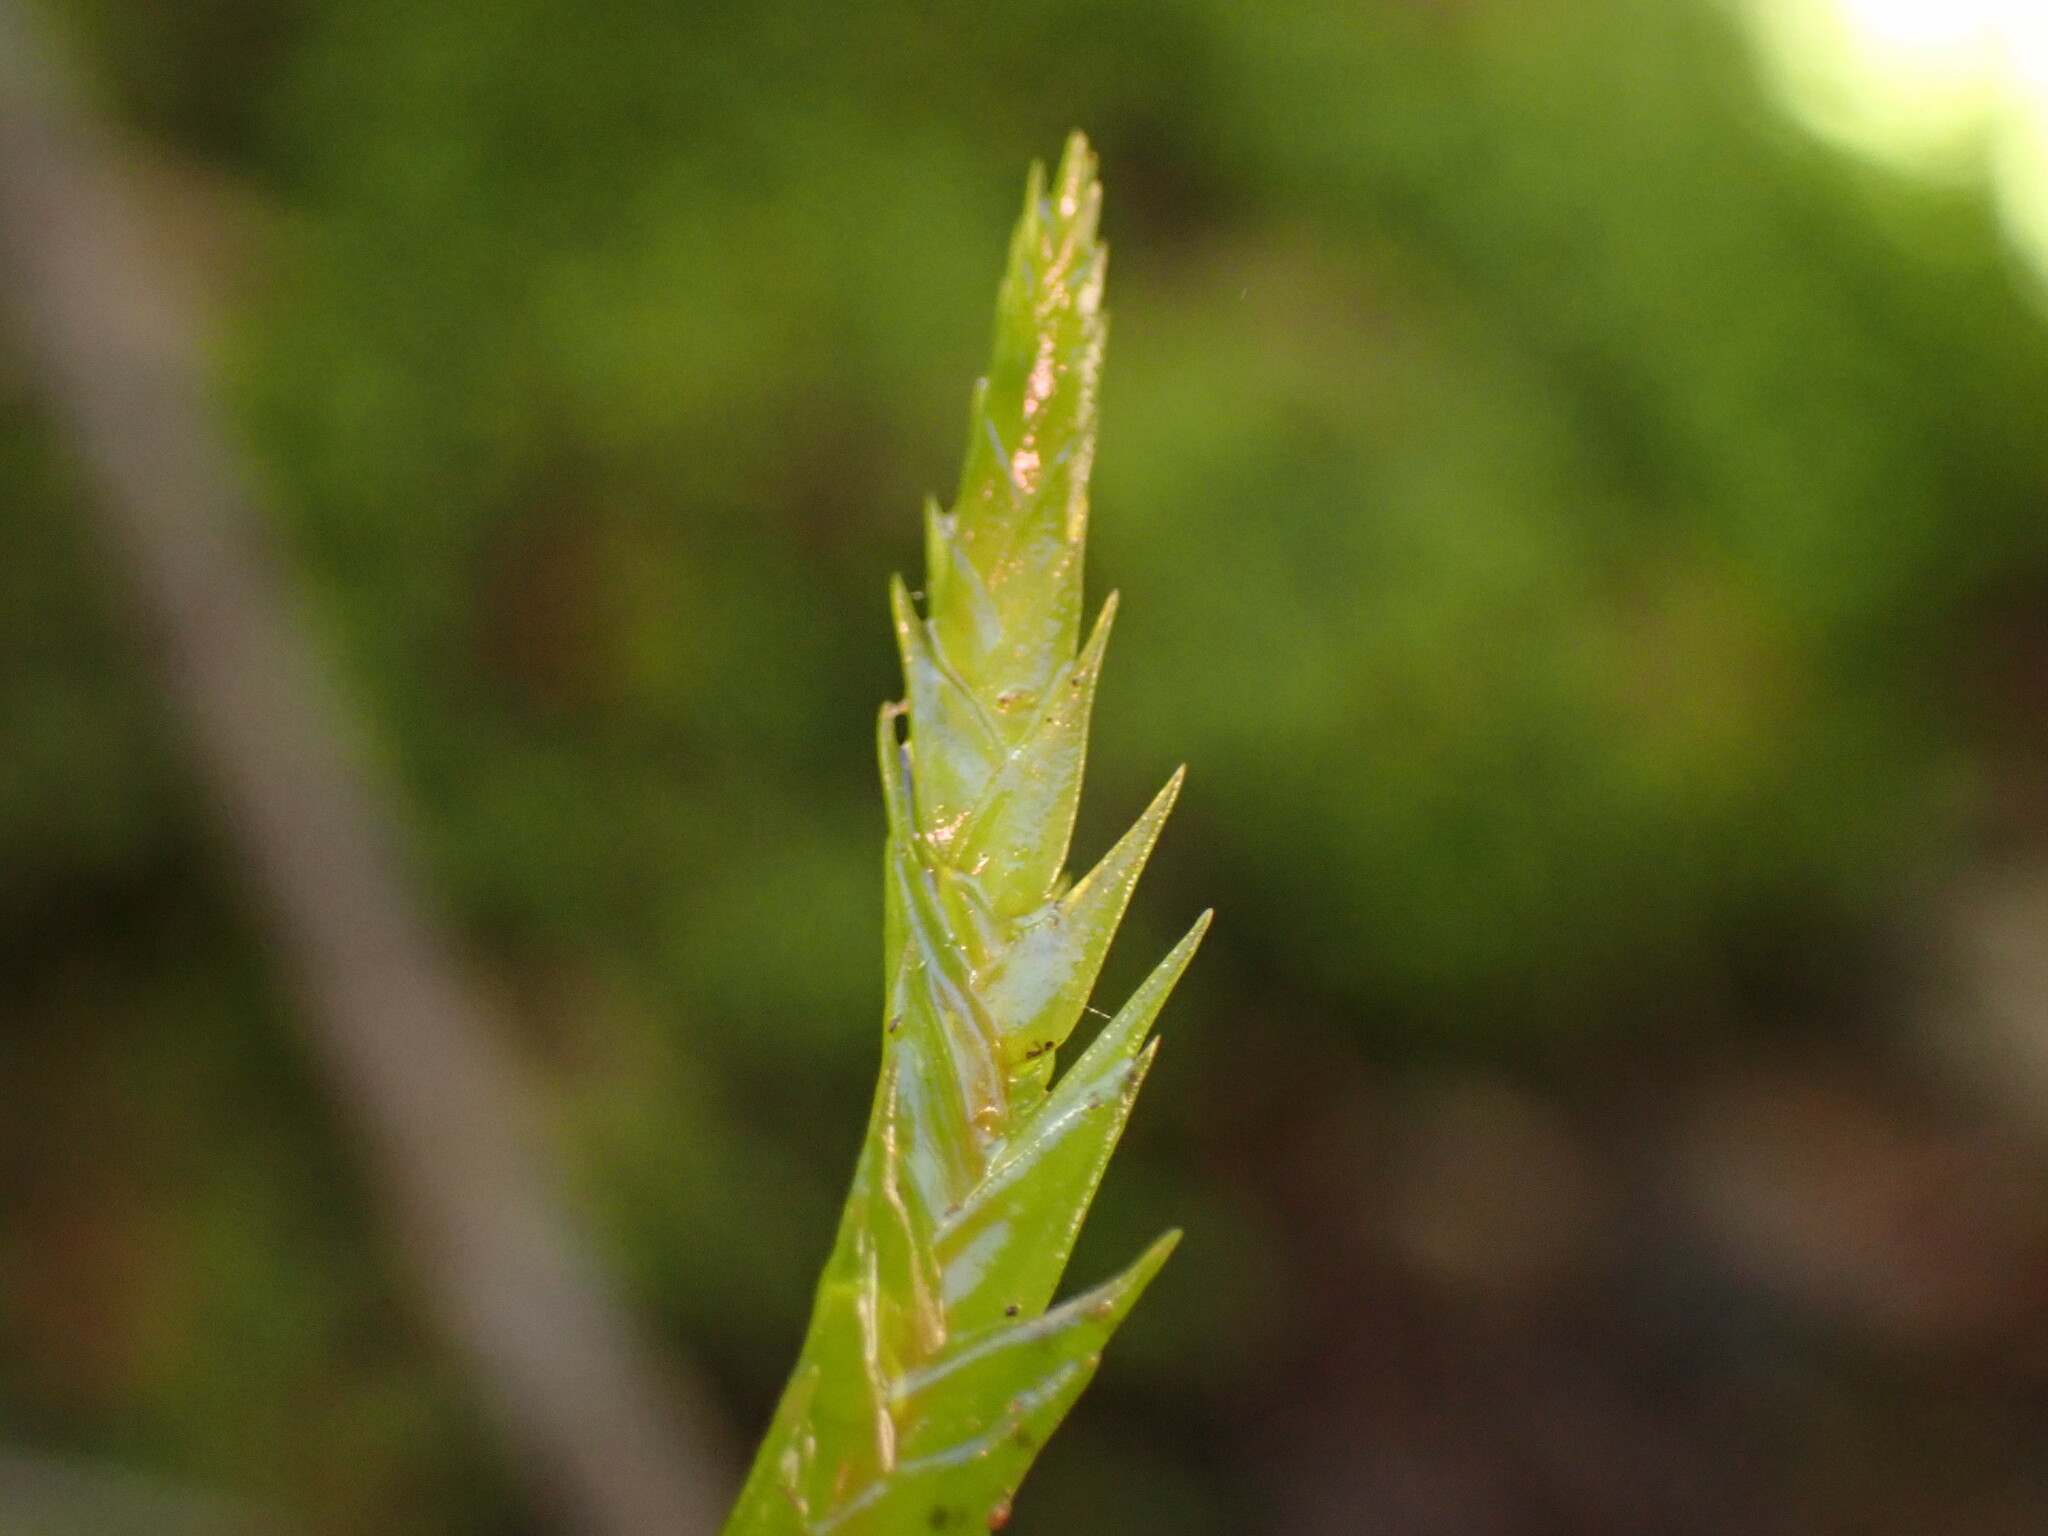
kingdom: Plantae
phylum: Bryophyta
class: Bryopsida
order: Hypnales
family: Fontinalaceae
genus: Fontinalis
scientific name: Fontinalis antipyretica
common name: Greater water-moss
